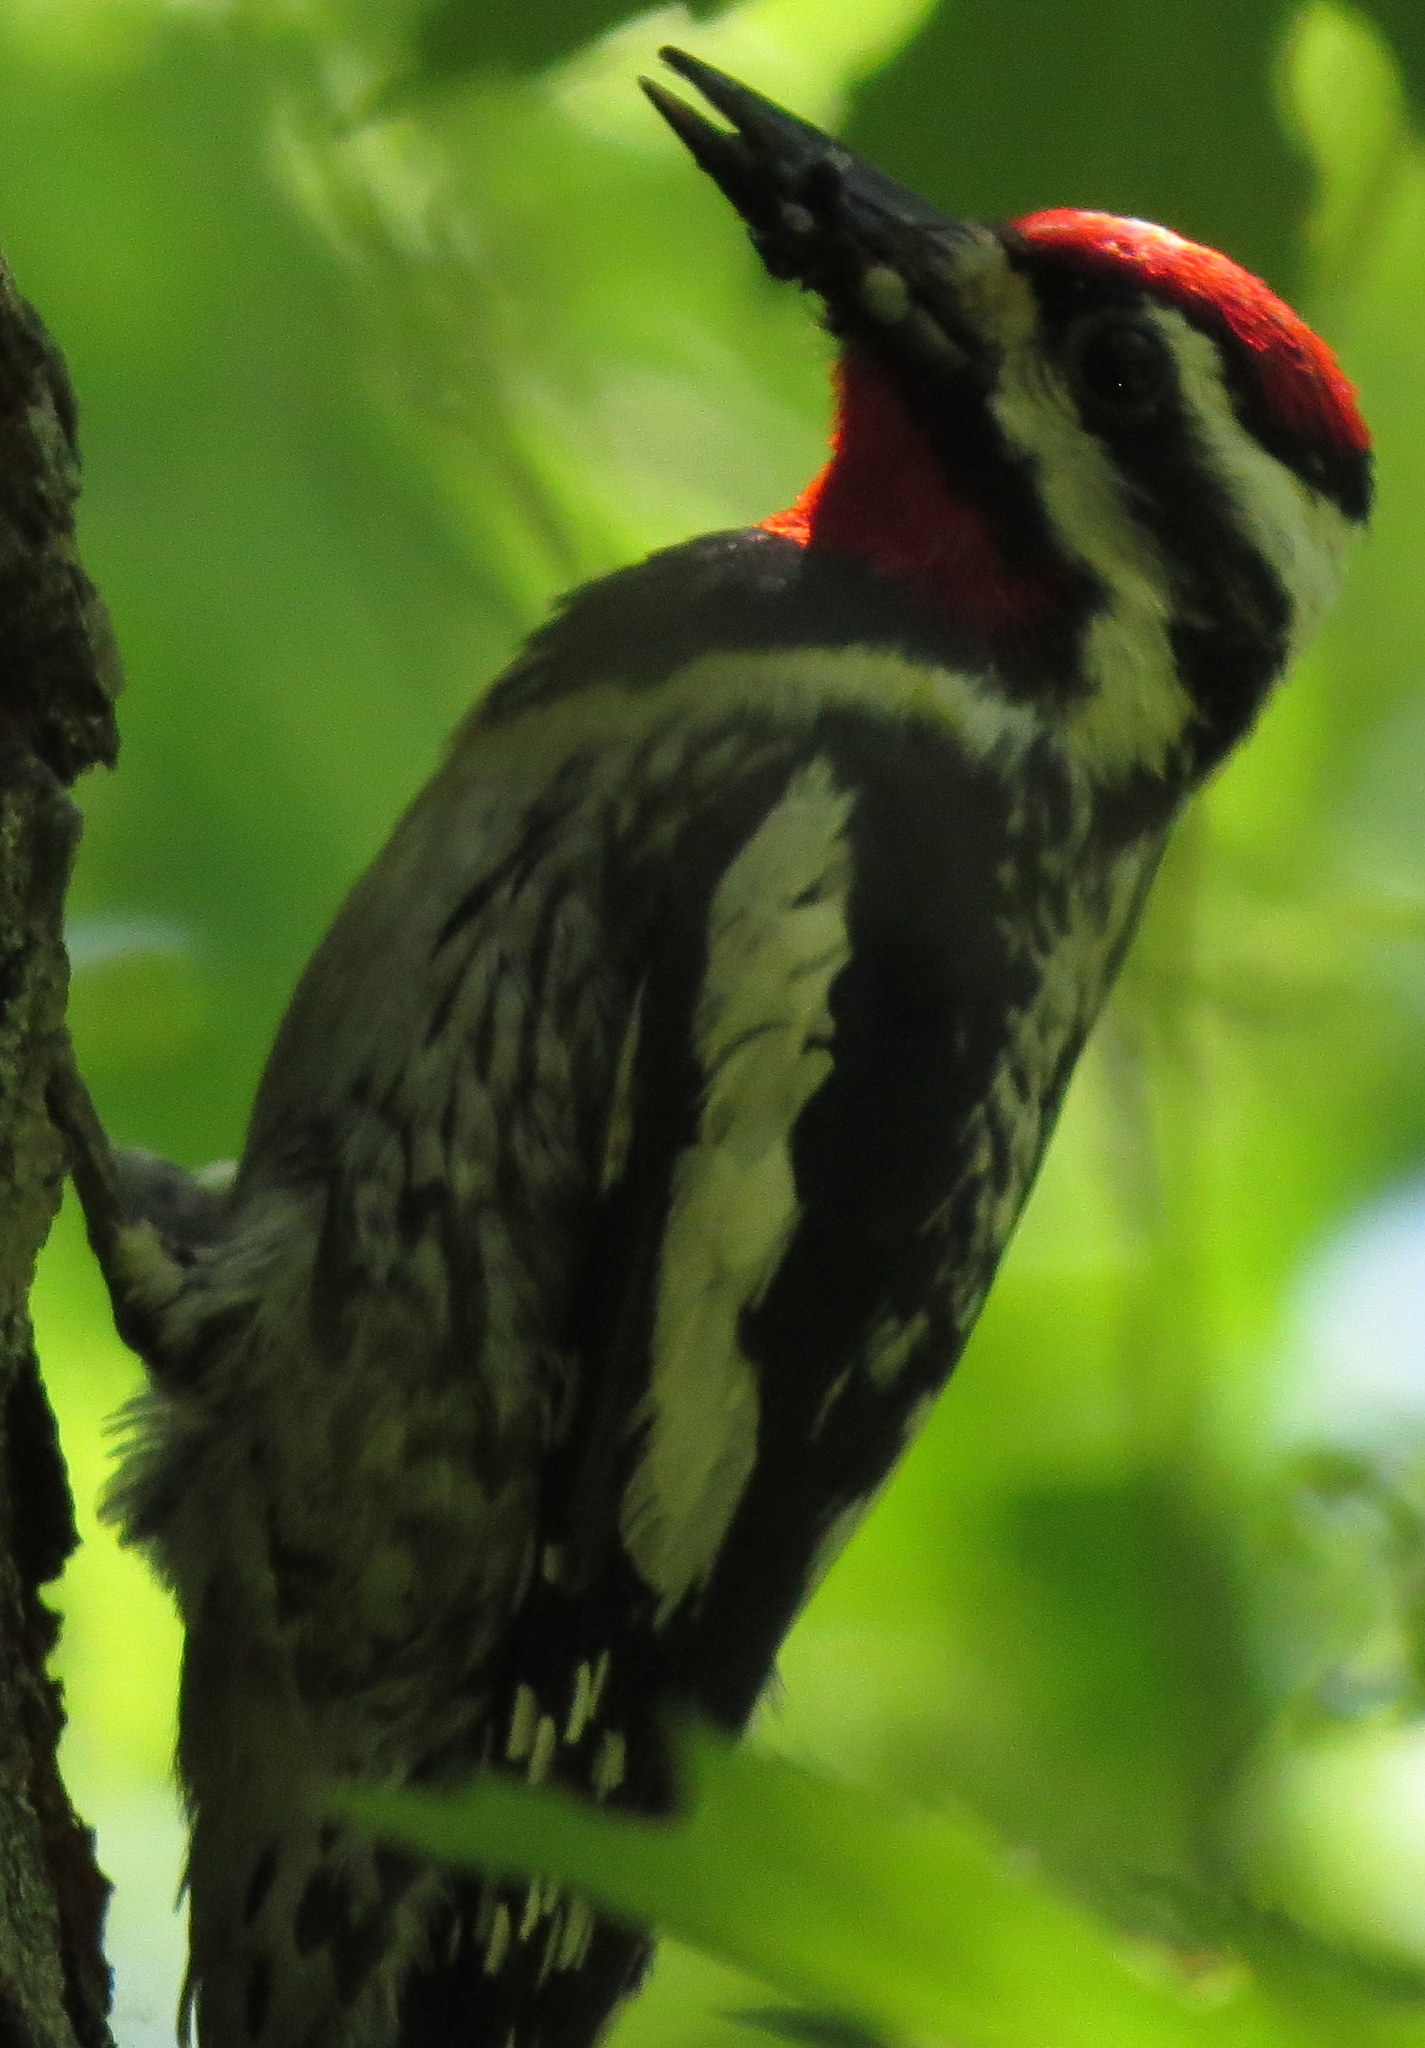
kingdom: Animalia
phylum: Chordata
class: Aves
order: Piciformes
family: Picidae
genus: Sphyrapicus
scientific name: Sphyrapicus varius
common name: Yellow-bellied sapsucker
